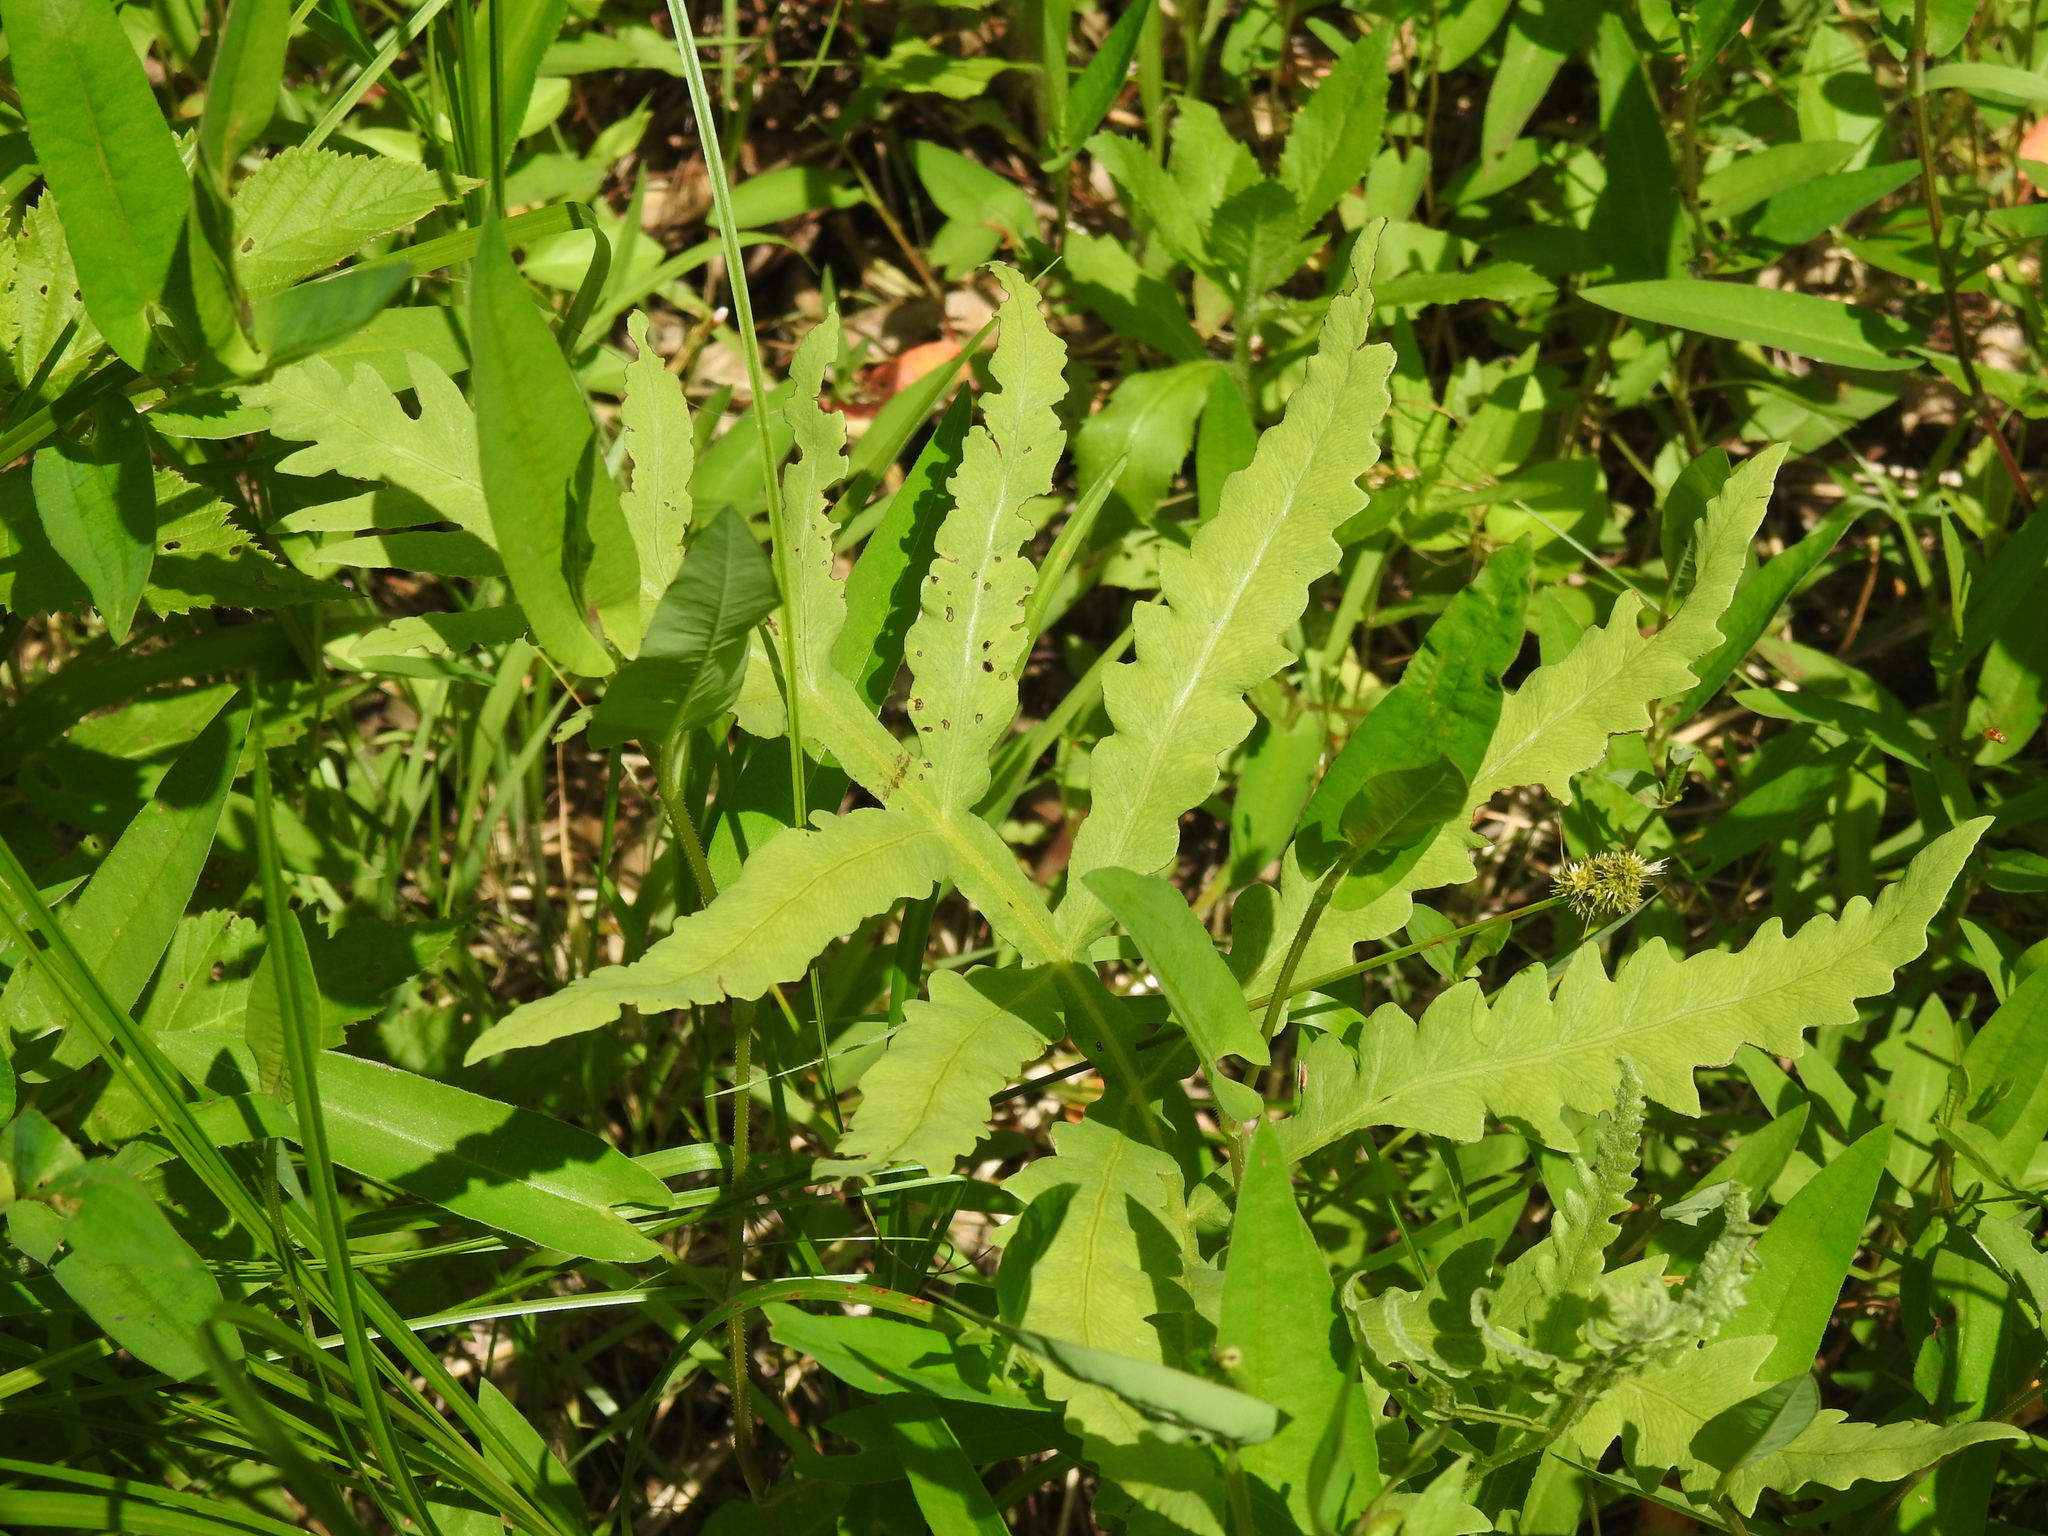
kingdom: Plantae
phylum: Tracheophyta
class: Polypodiopsida
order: Polypodiales
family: Onocleaceae
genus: Onoclea
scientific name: Onoclea sensibilis
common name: Sensitive fern
